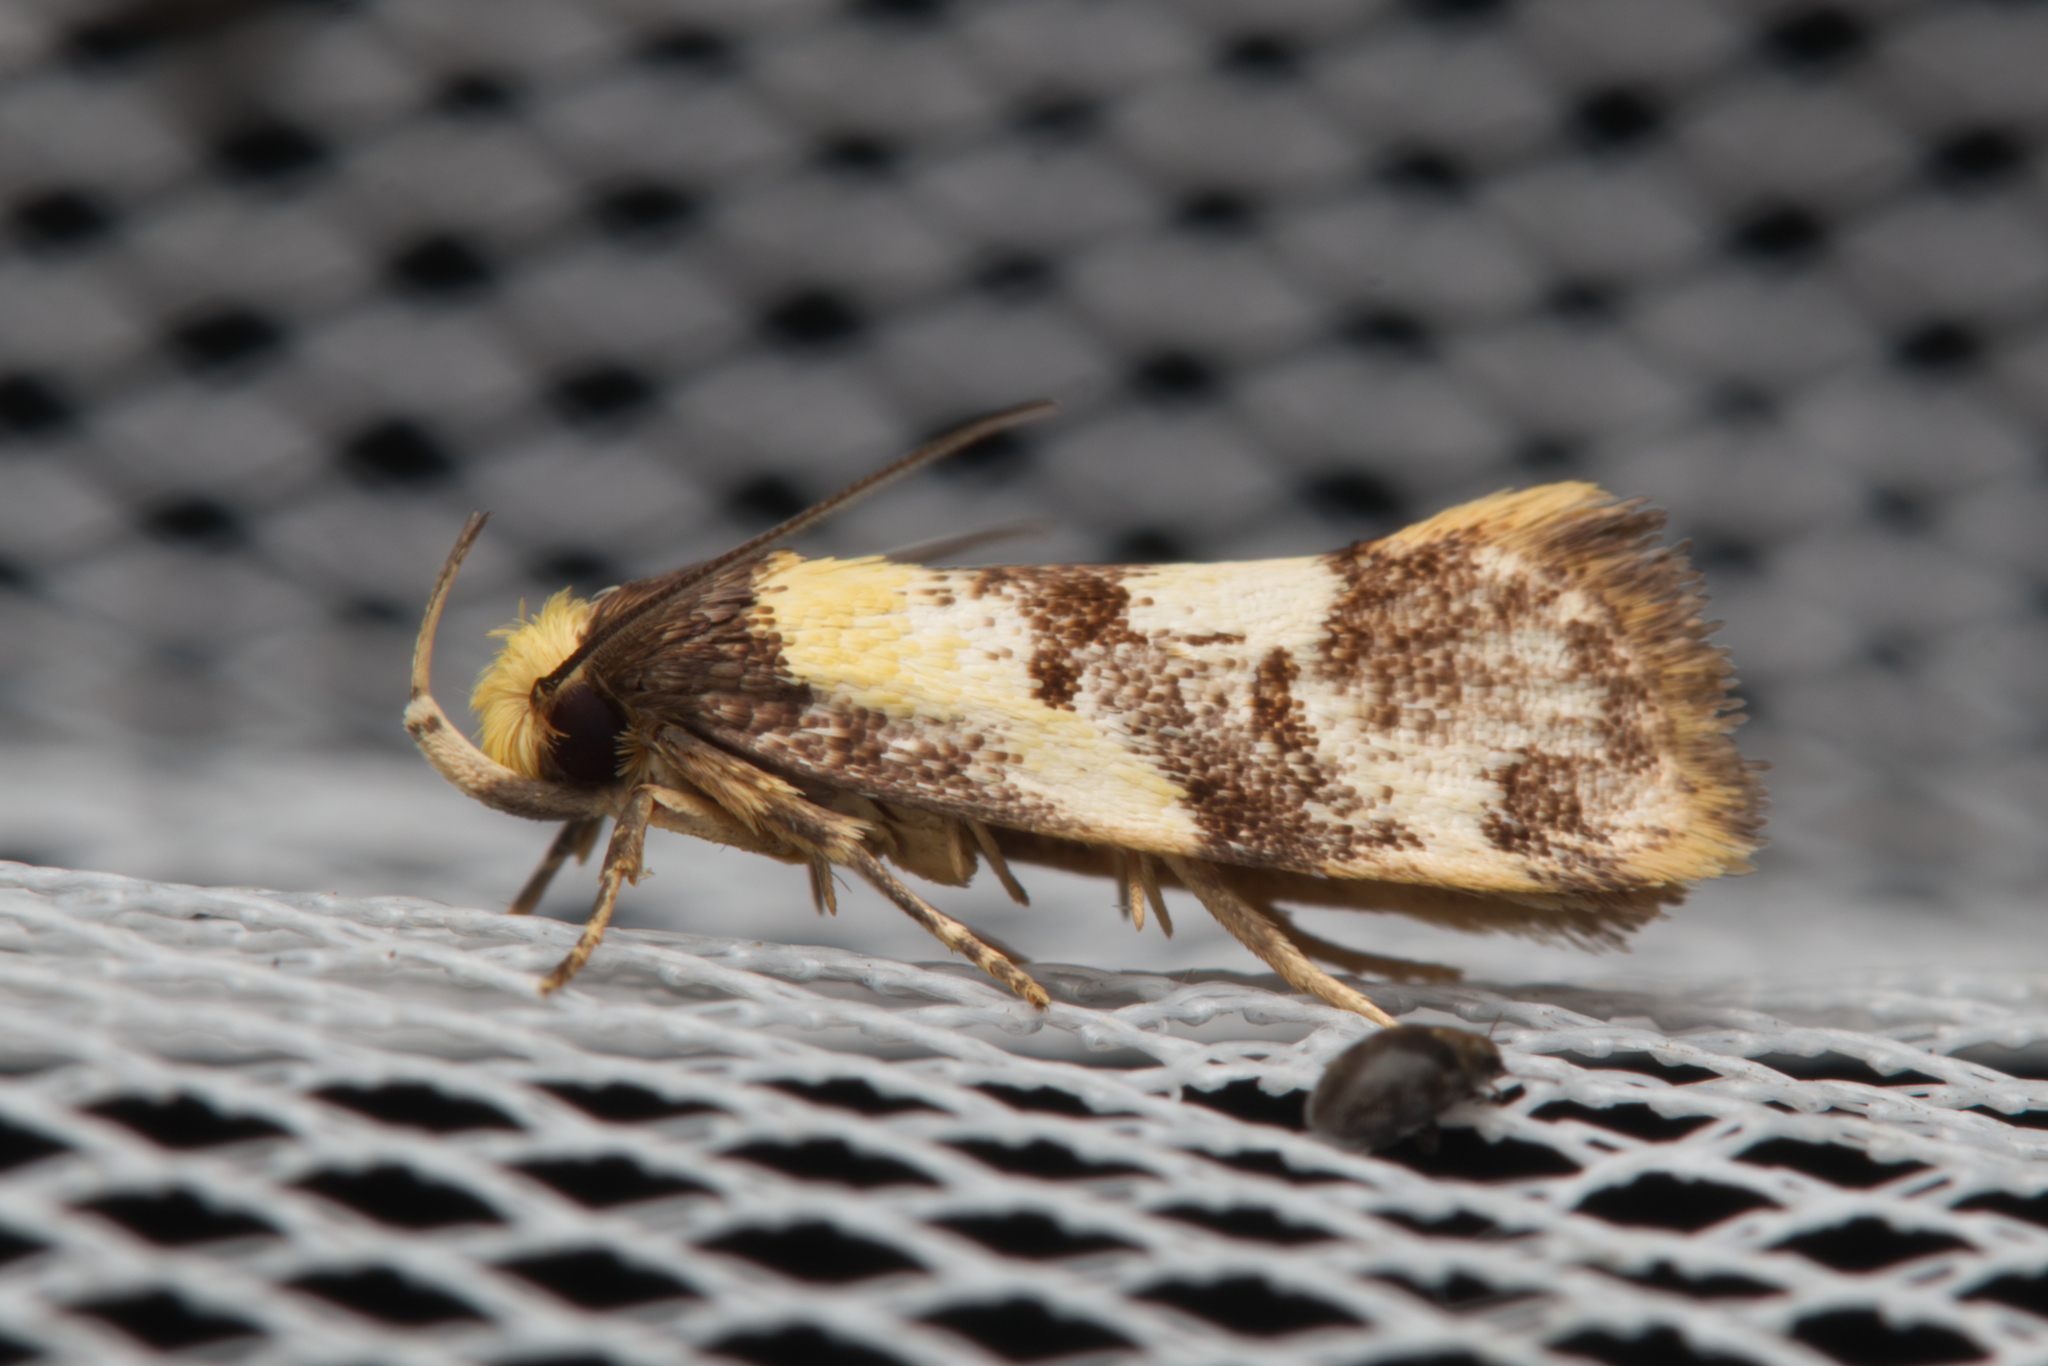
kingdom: Animalia
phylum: Arthropoda
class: Insecta
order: Lepidoptera
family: Oecophoridae
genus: Eulechria
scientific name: Eulechria marmorata
